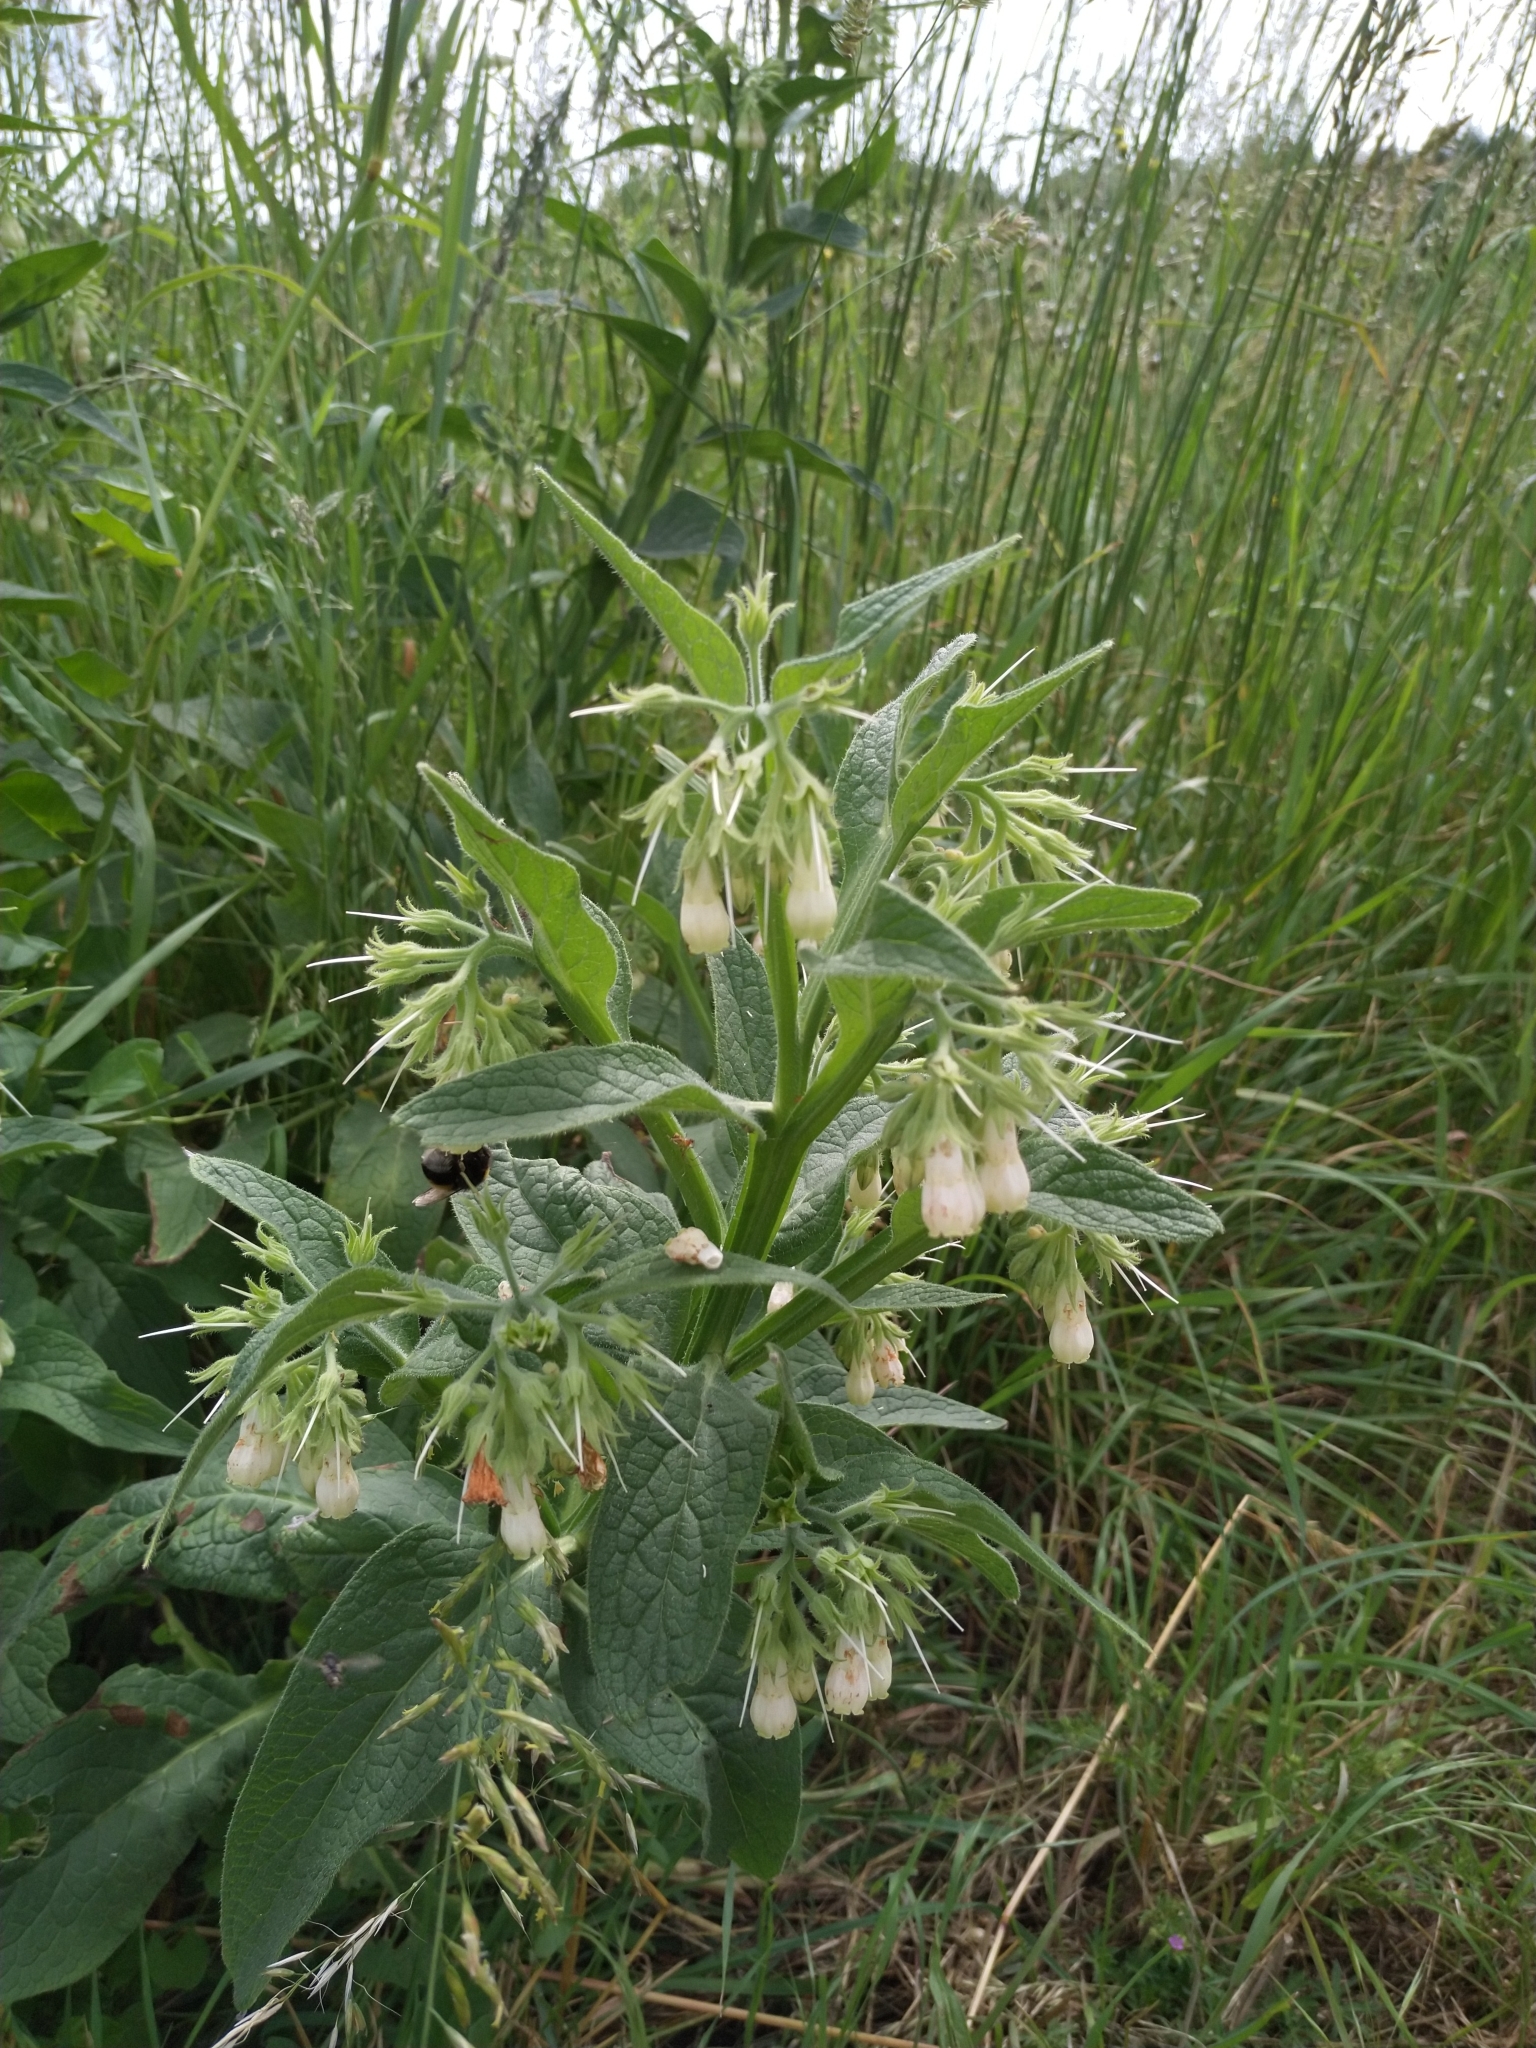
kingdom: Plantae
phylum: Tracheophyta
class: Magnoliopsida
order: Boraginales
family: Boraginaceae
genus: Symphytum
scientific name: Symphytum officinale
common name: Common comfrey
